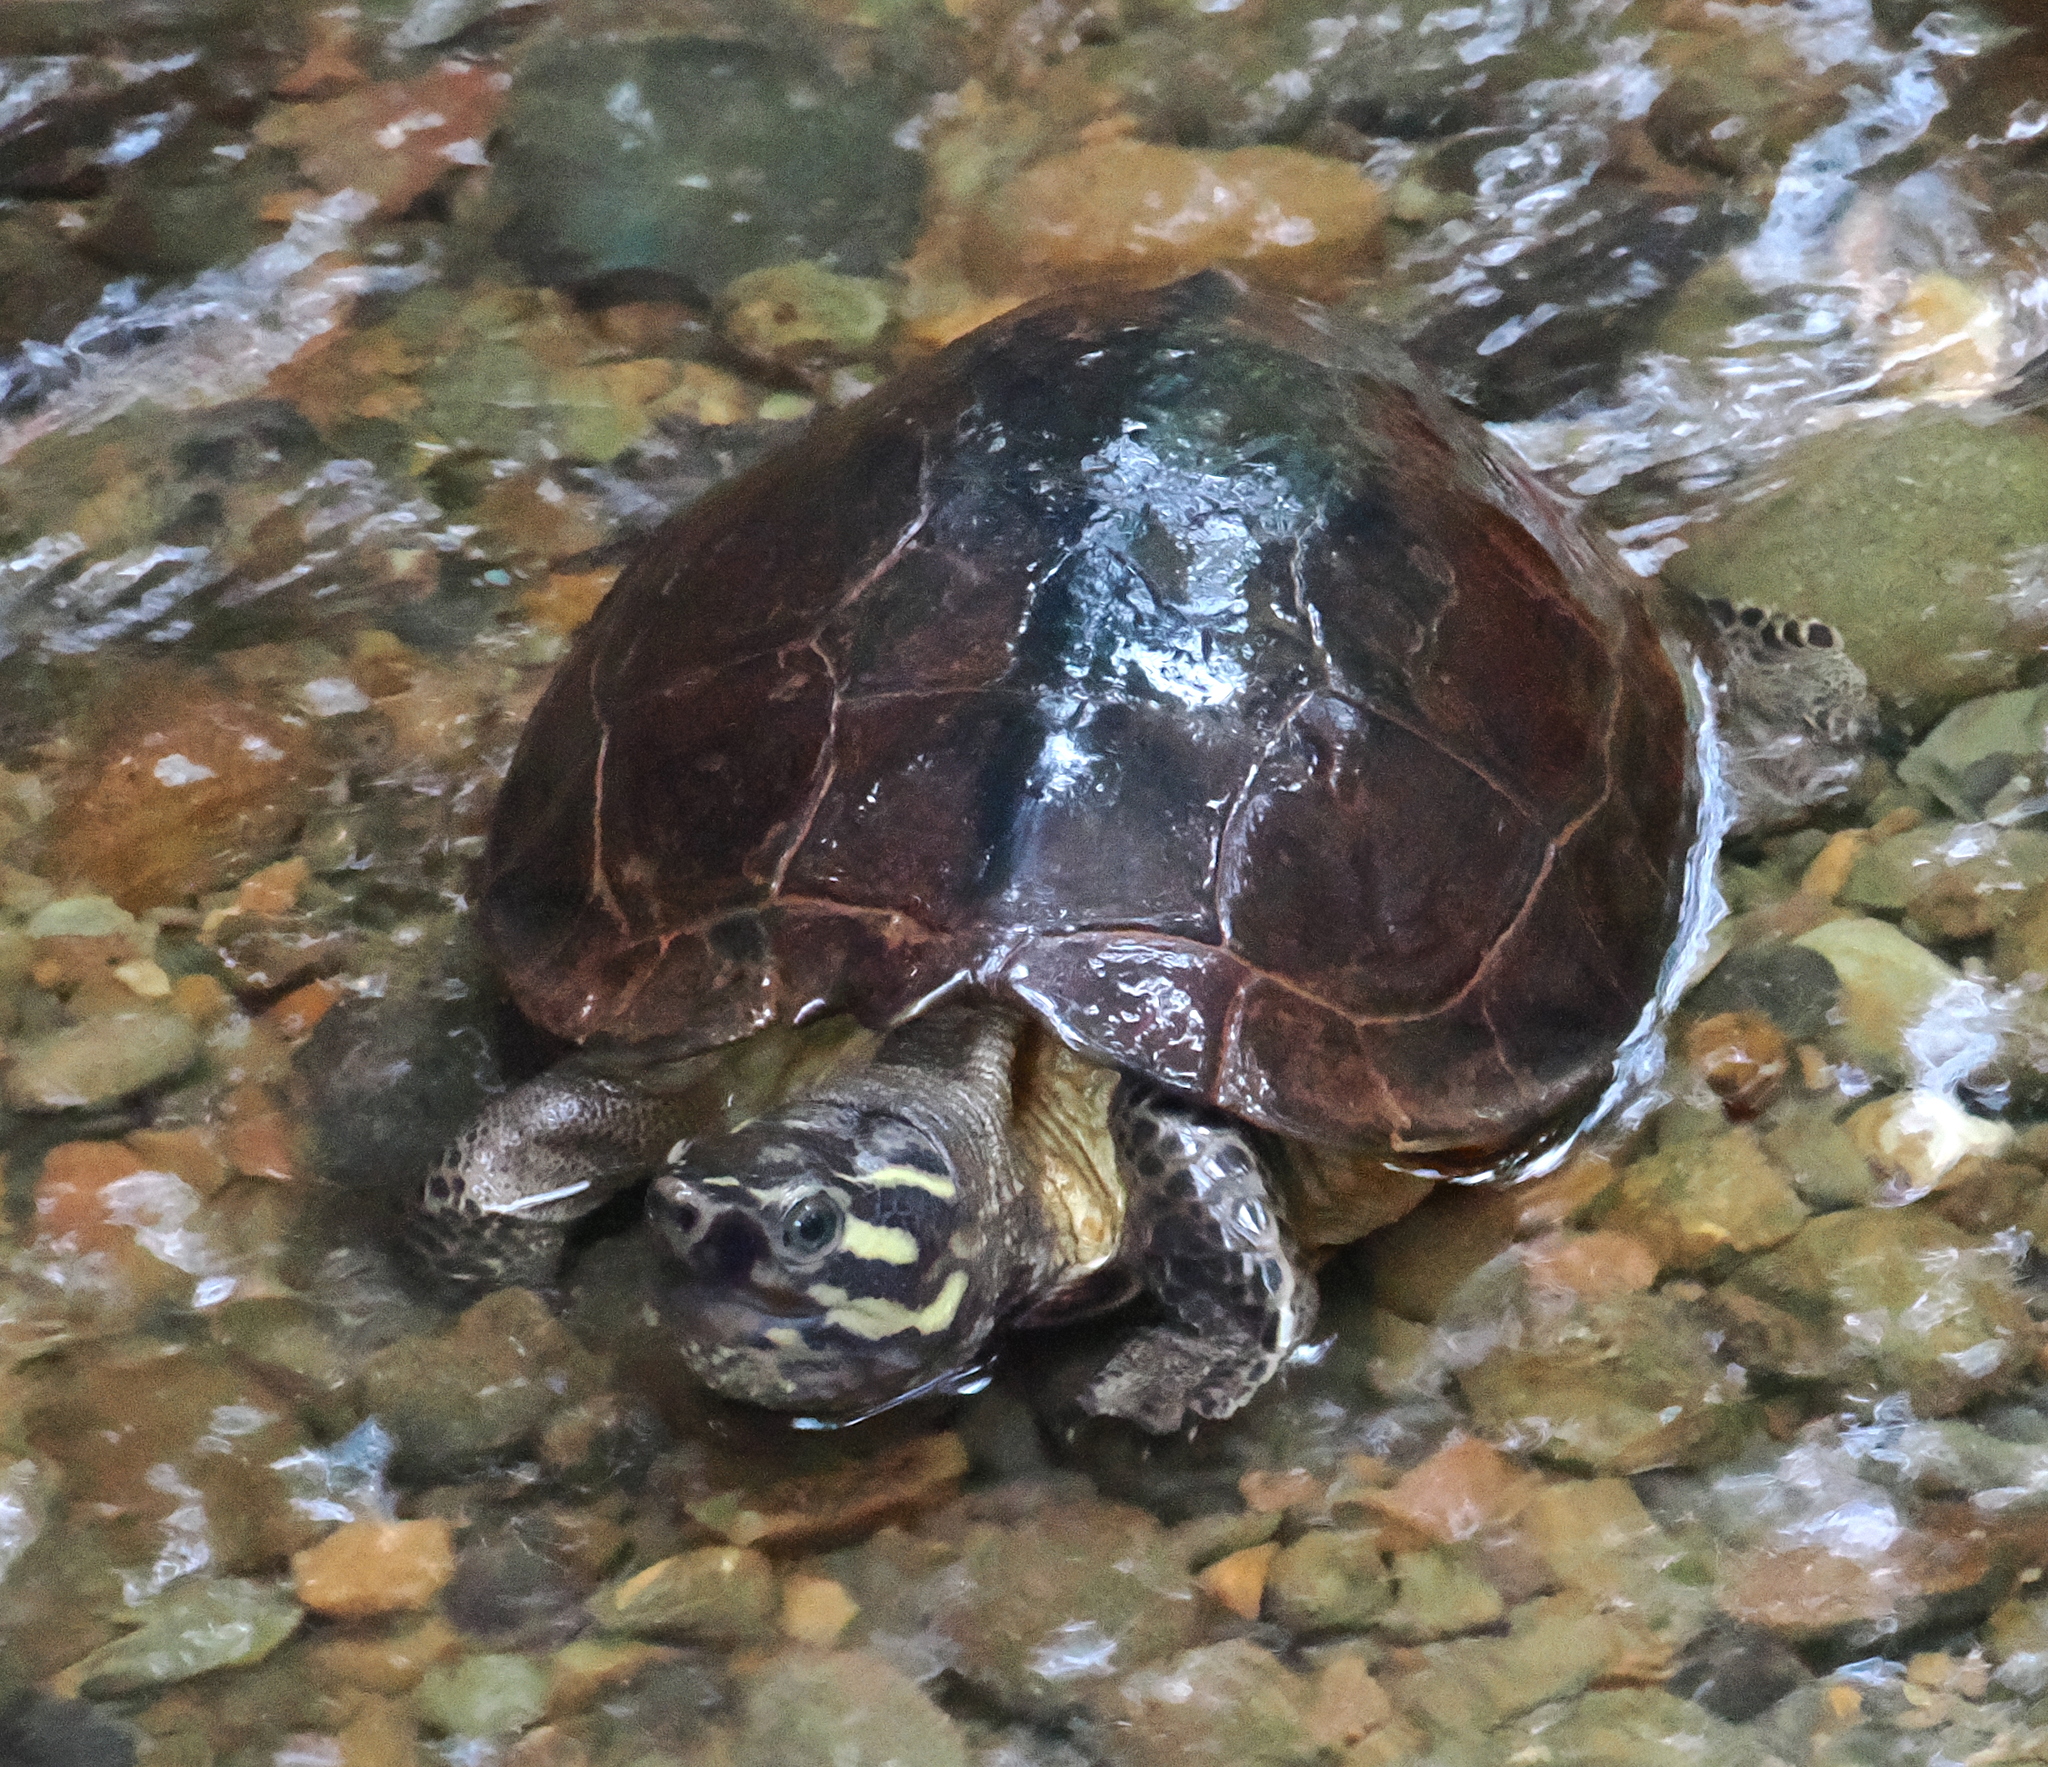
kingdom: Animalia
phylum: Chordata
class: Testudines
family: Geoemydidae
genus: Rhinoclemmys
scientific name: Rhinoclemmys nasuta
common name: Large-nosed wood turtle
